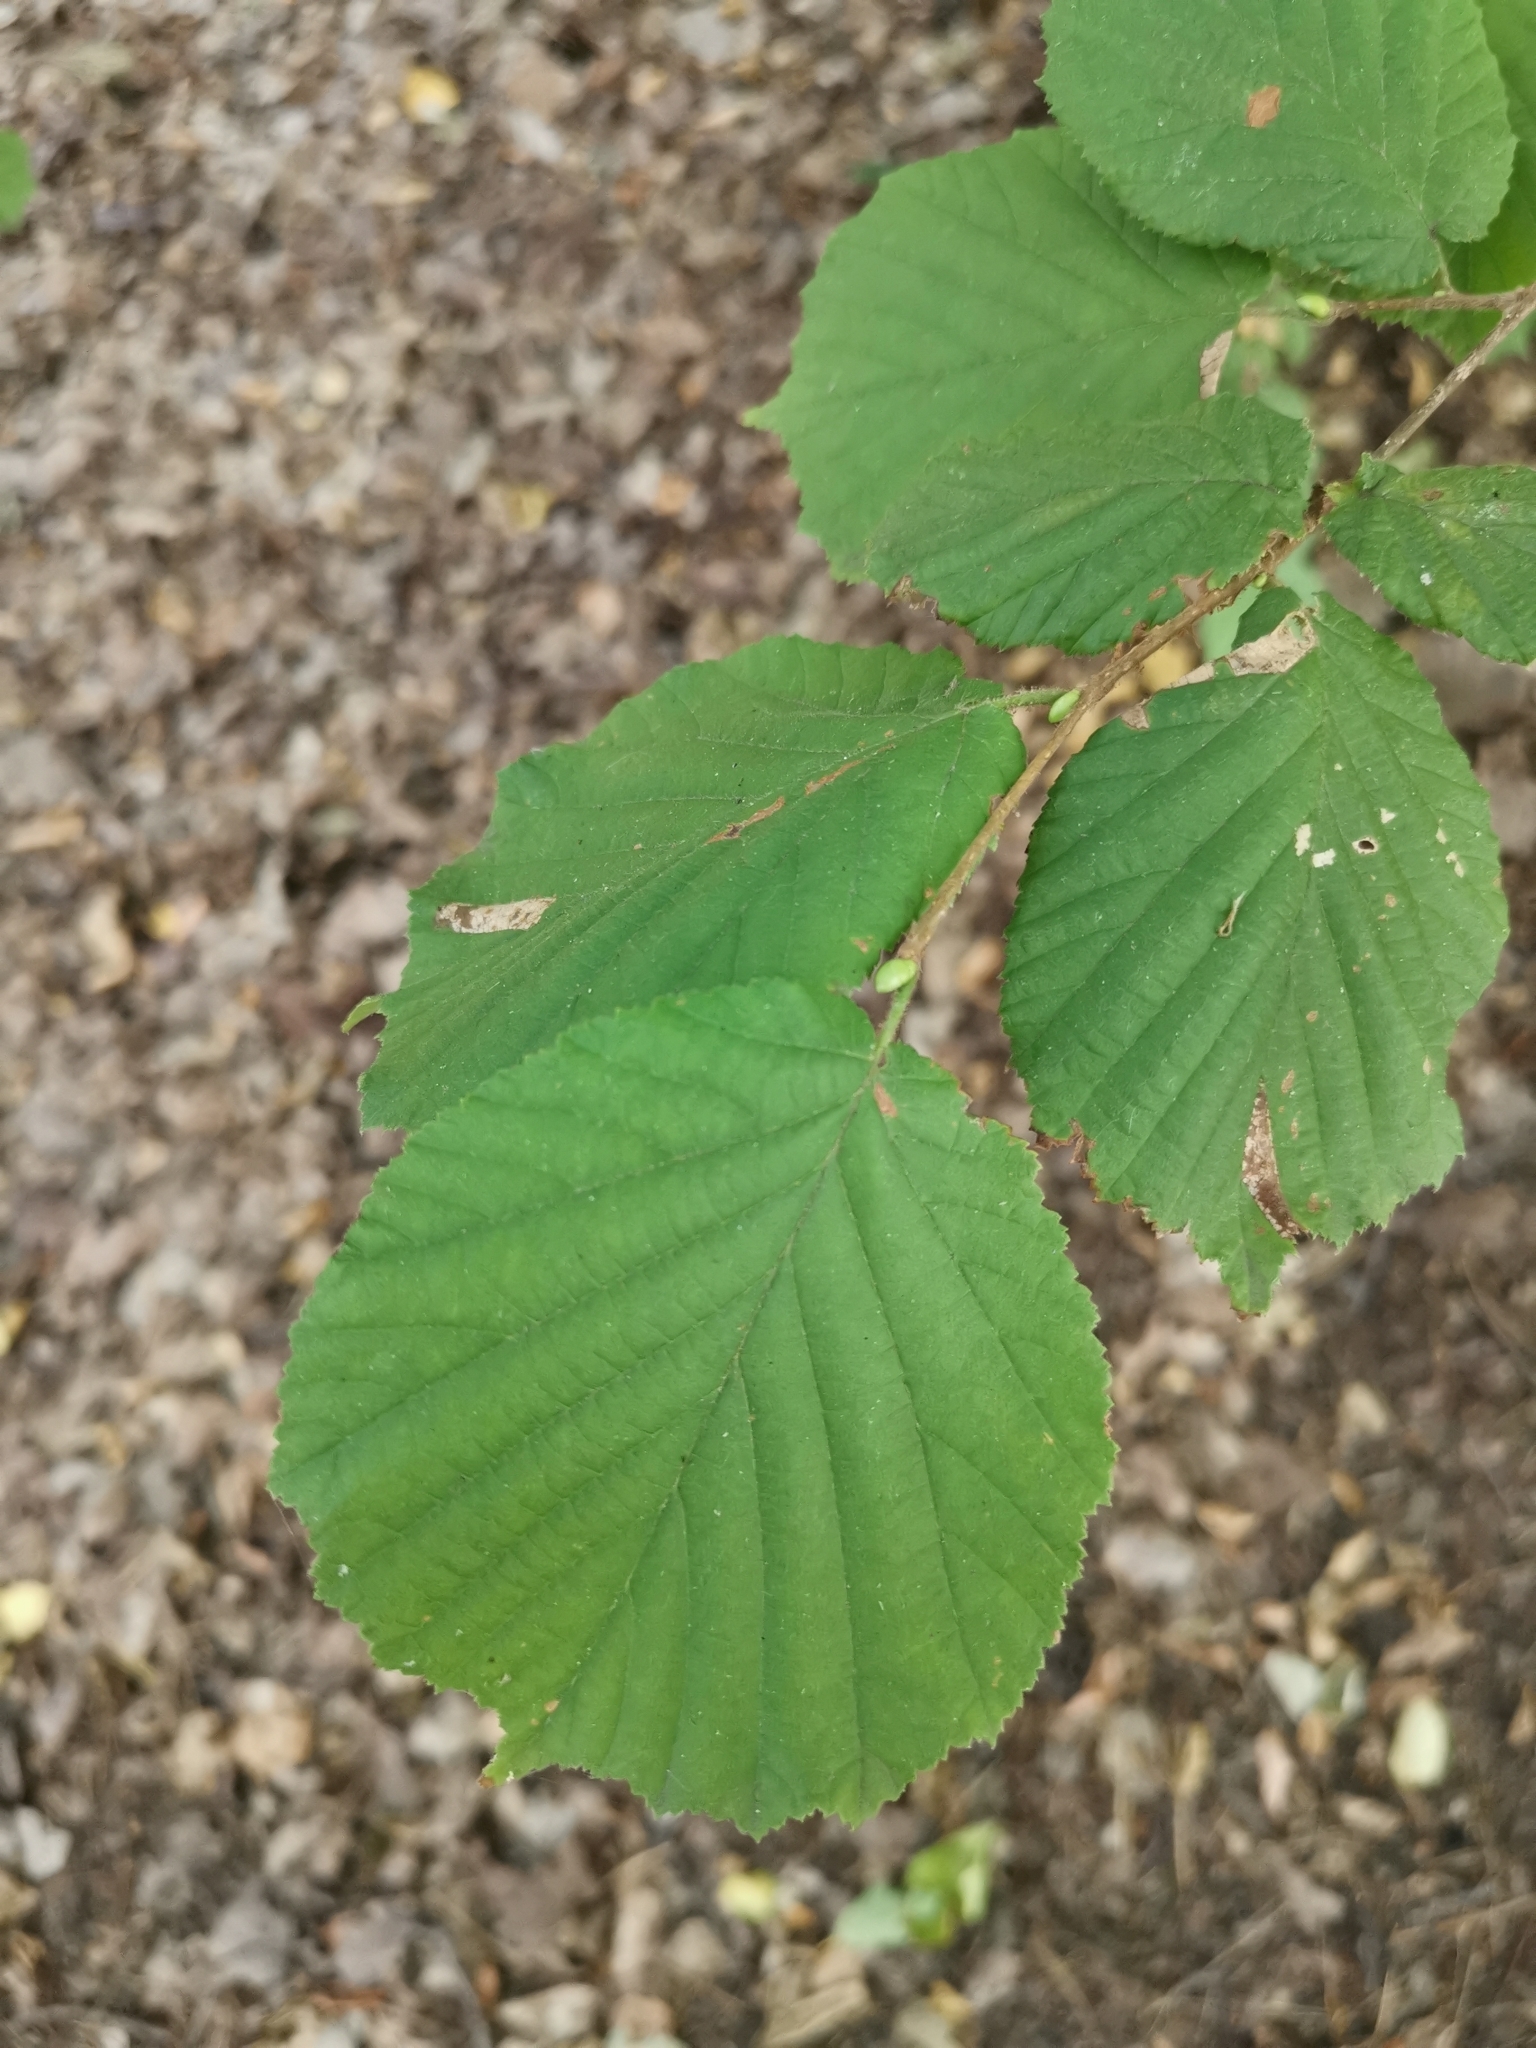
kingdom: Plantae
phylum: Tracheophyta
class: Magnoliopsida
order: Fagales
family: Betulaceae
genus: Corylus
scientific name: Corylus avellana
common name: European hazel
